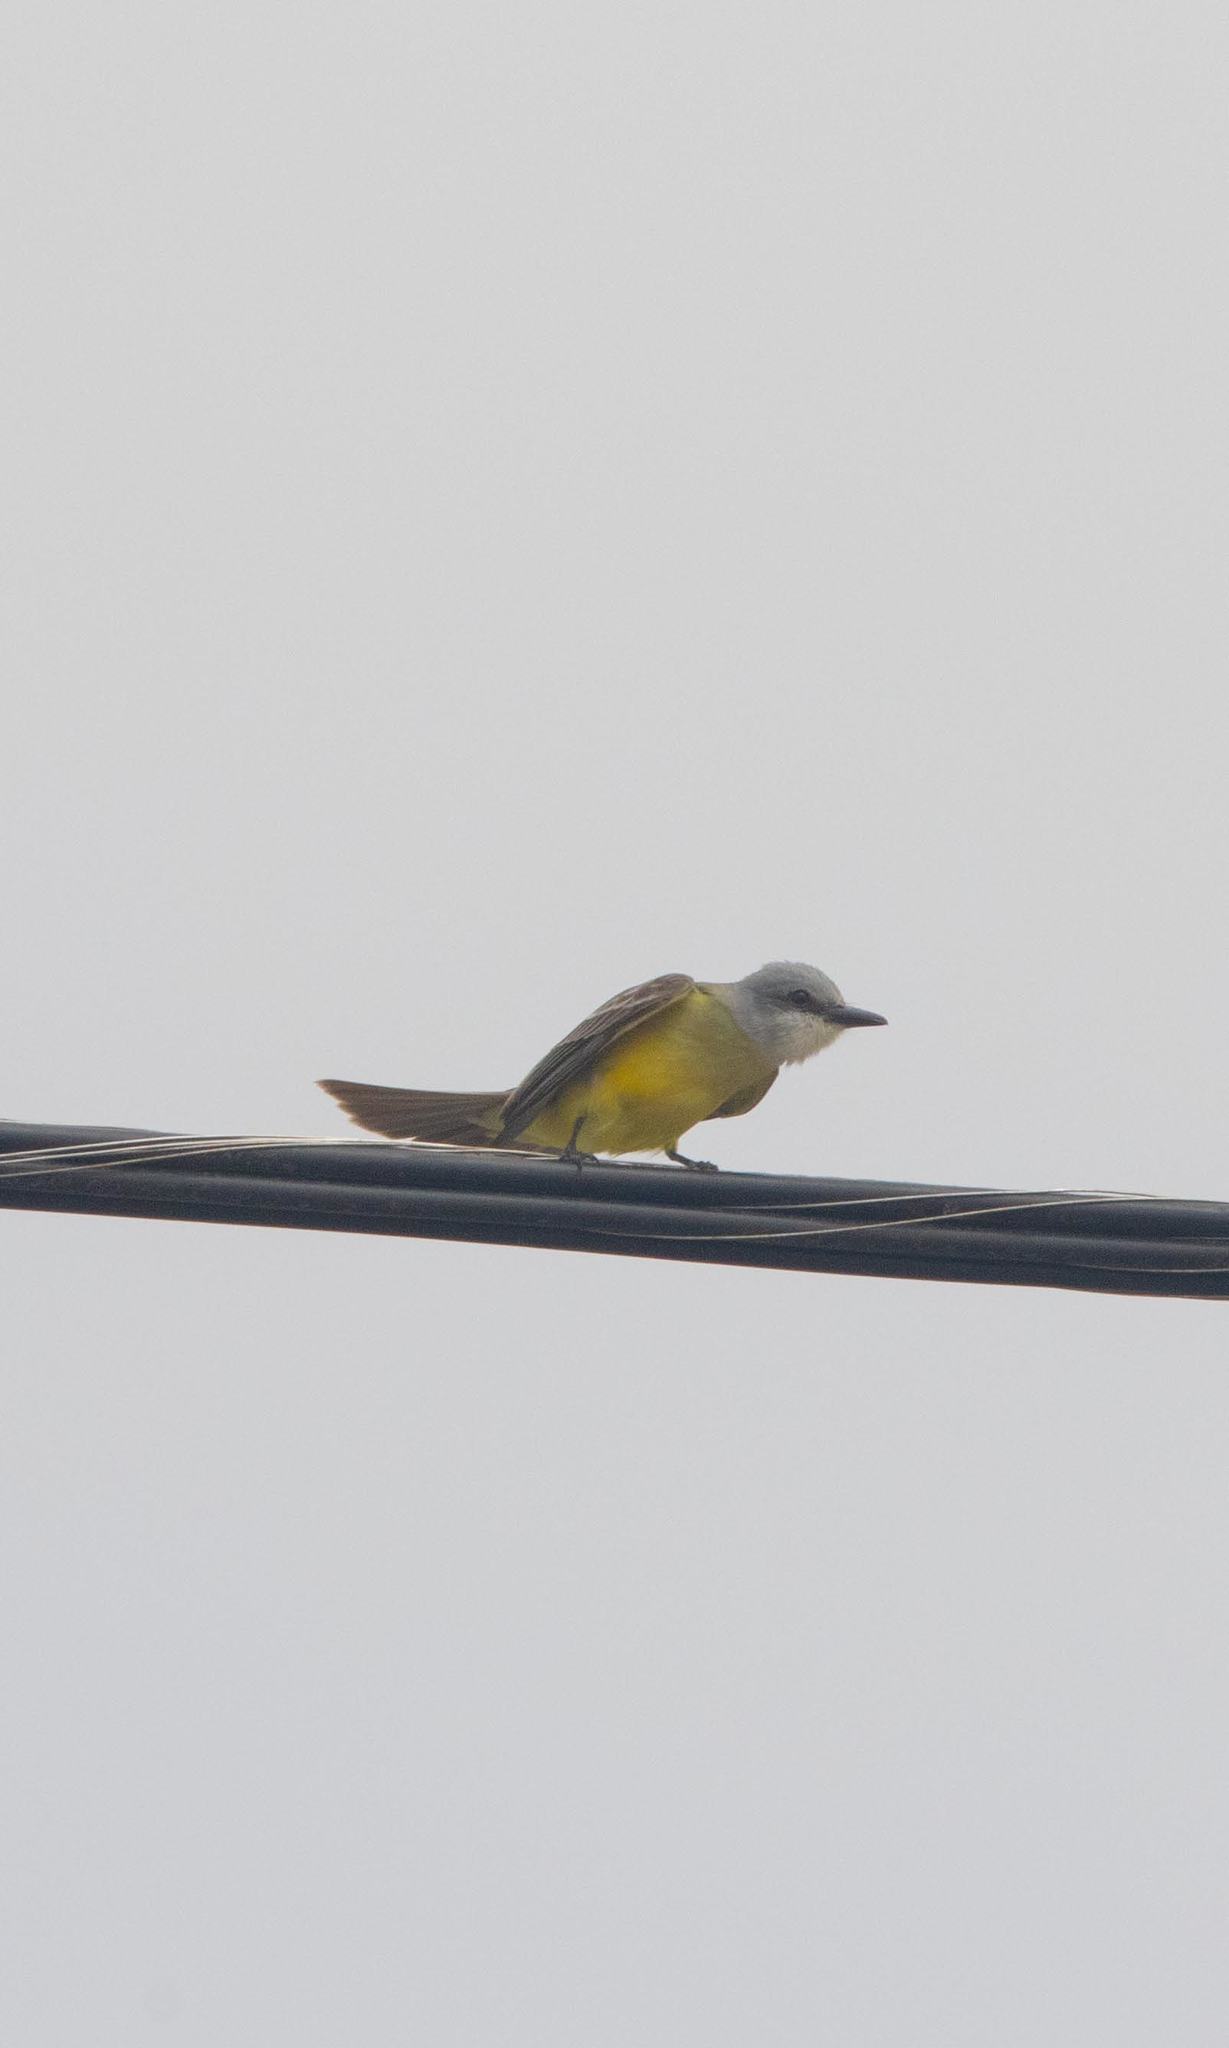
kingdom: Animalia
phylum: Chordata
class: Aves
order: Passeriformes
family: Tyrannidae
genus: Tyrannus
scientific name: Tyrannus melancholicus
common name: Tropical kingbird
